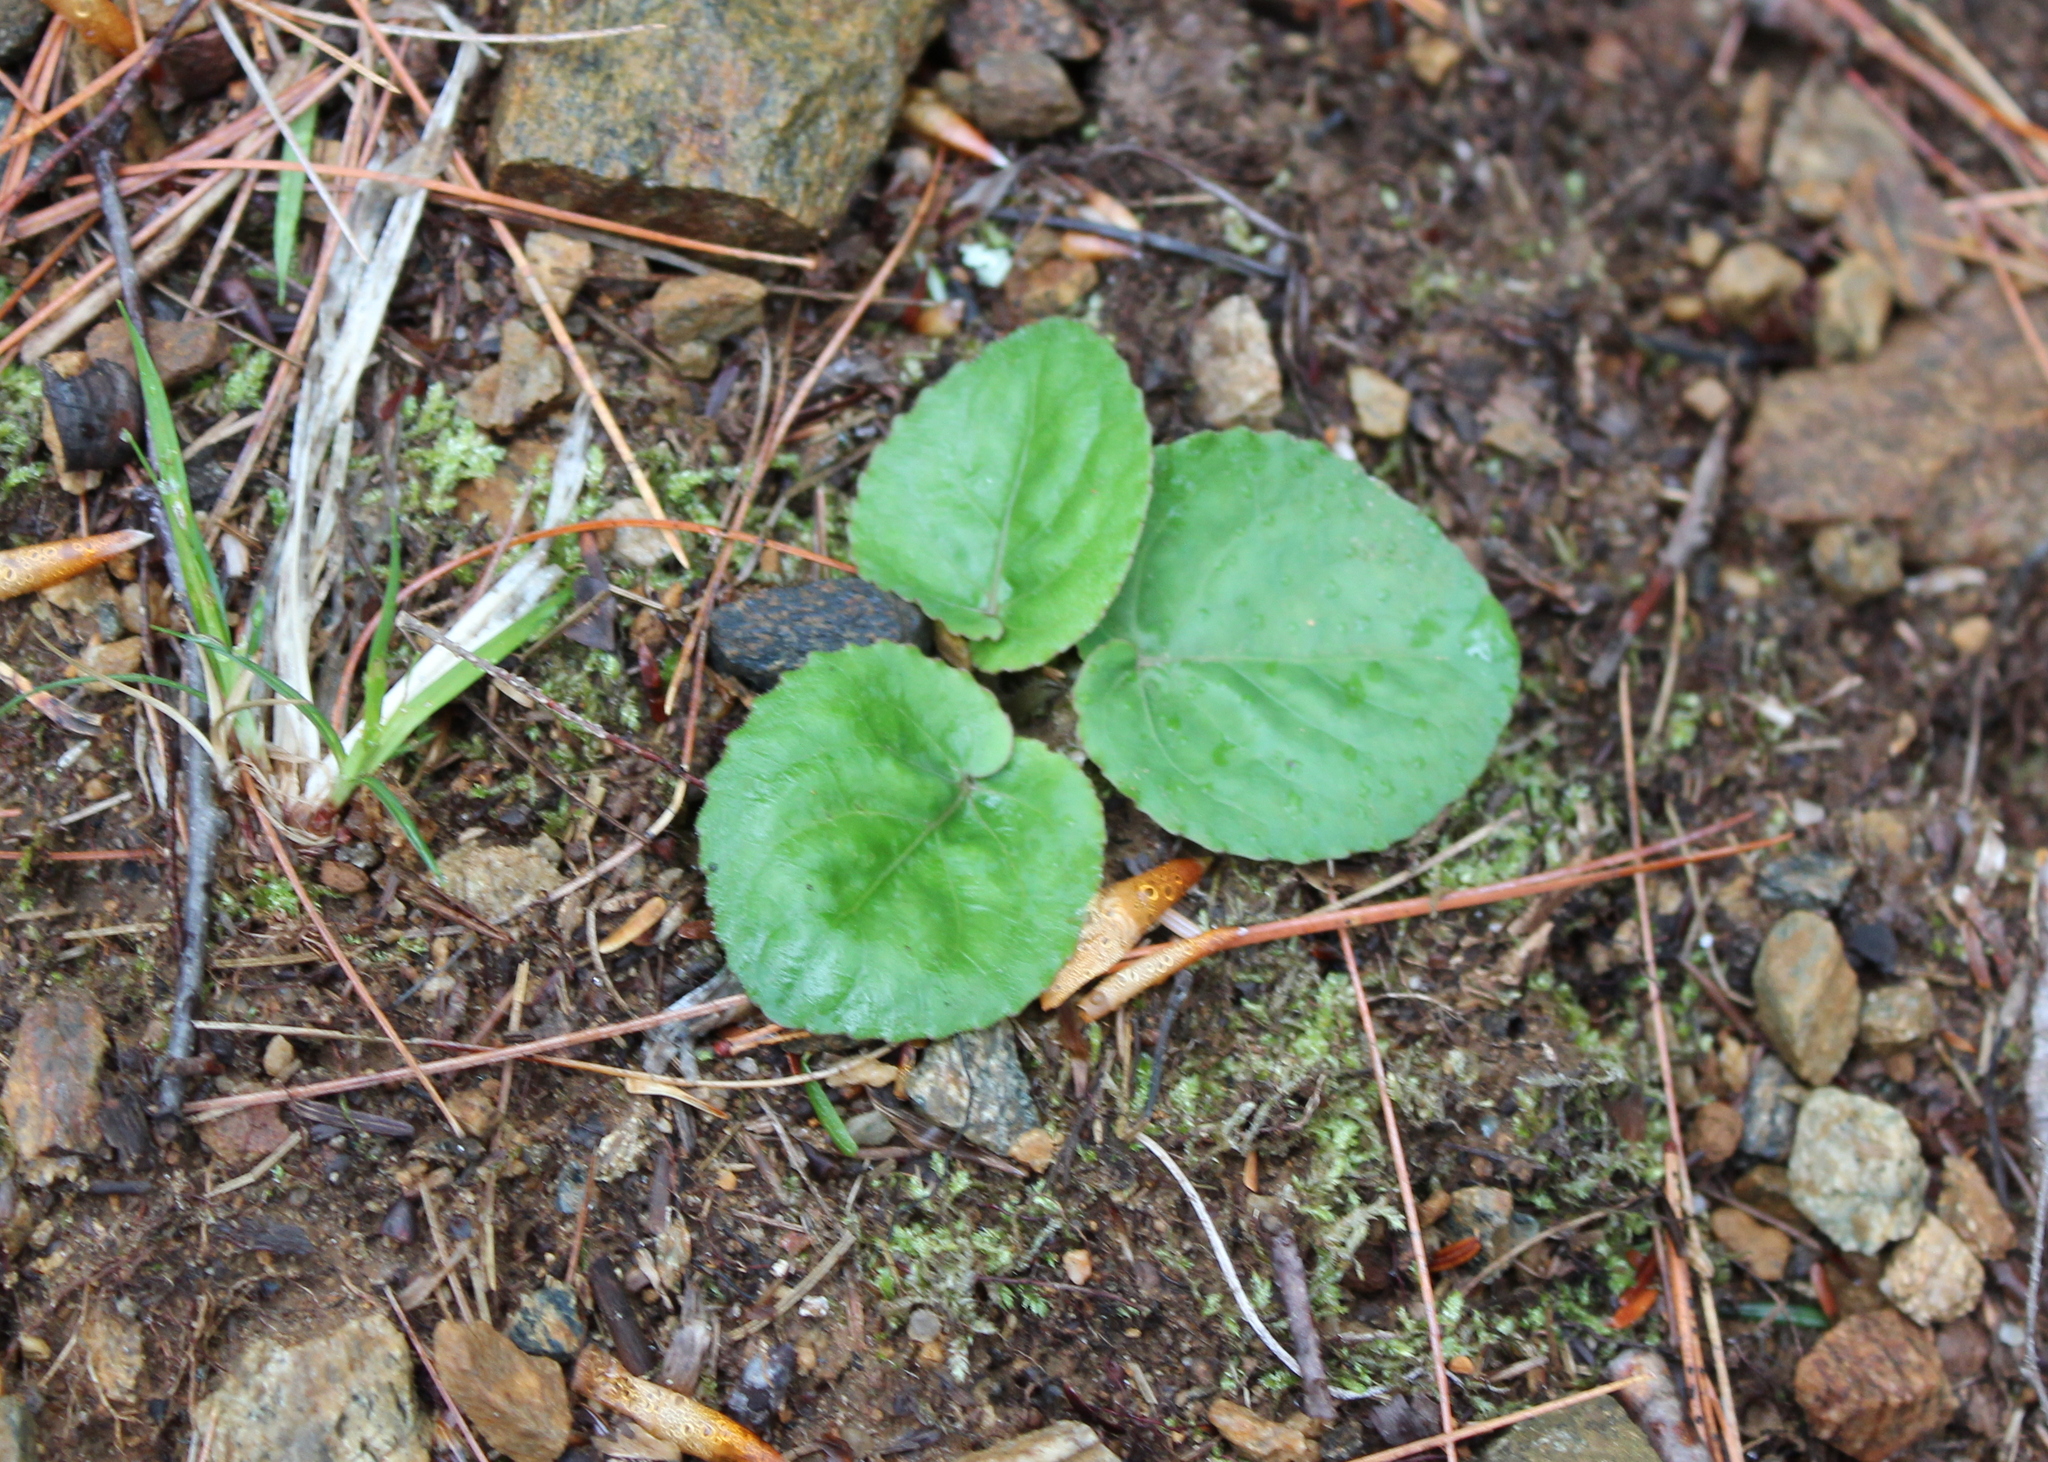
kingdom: Plantae
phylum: Tracheophyta
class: Magnoliopsida
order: Malpighiales
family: Violaceae
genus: Viola
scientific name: Viola rotundifolia
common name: Early yellow violet
